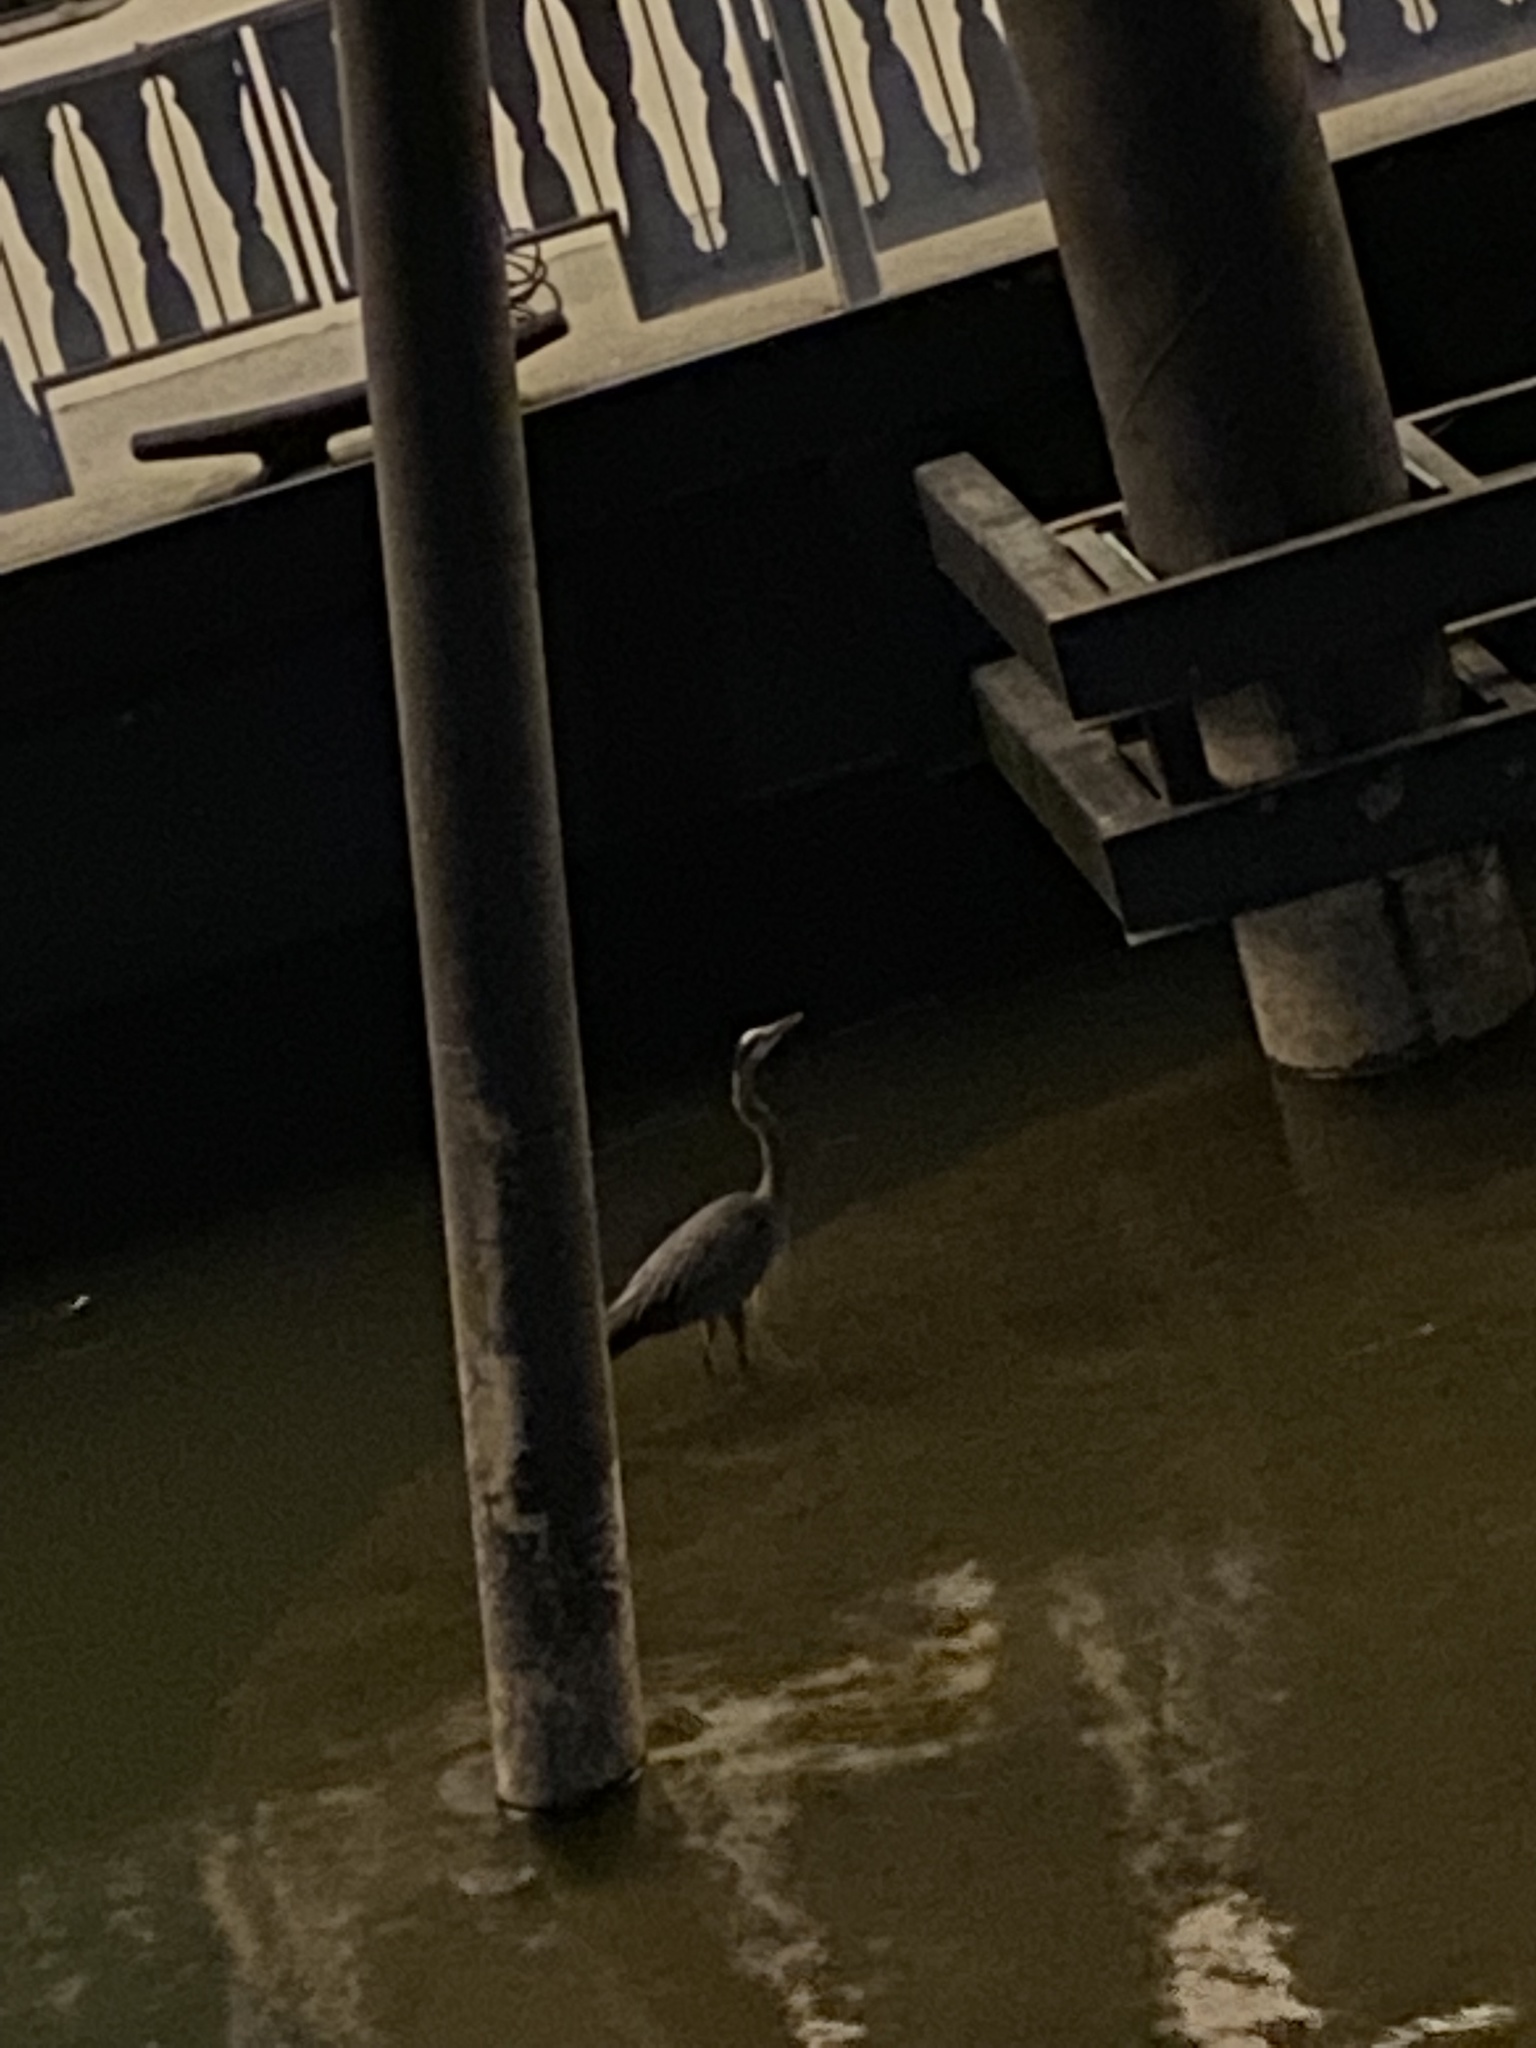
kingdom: Animalia
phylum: Chordata
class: Aves
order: Pelecaniformes
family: Ardeidae
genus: Ardea
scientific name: Ardea herodias
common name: Great blue heron
